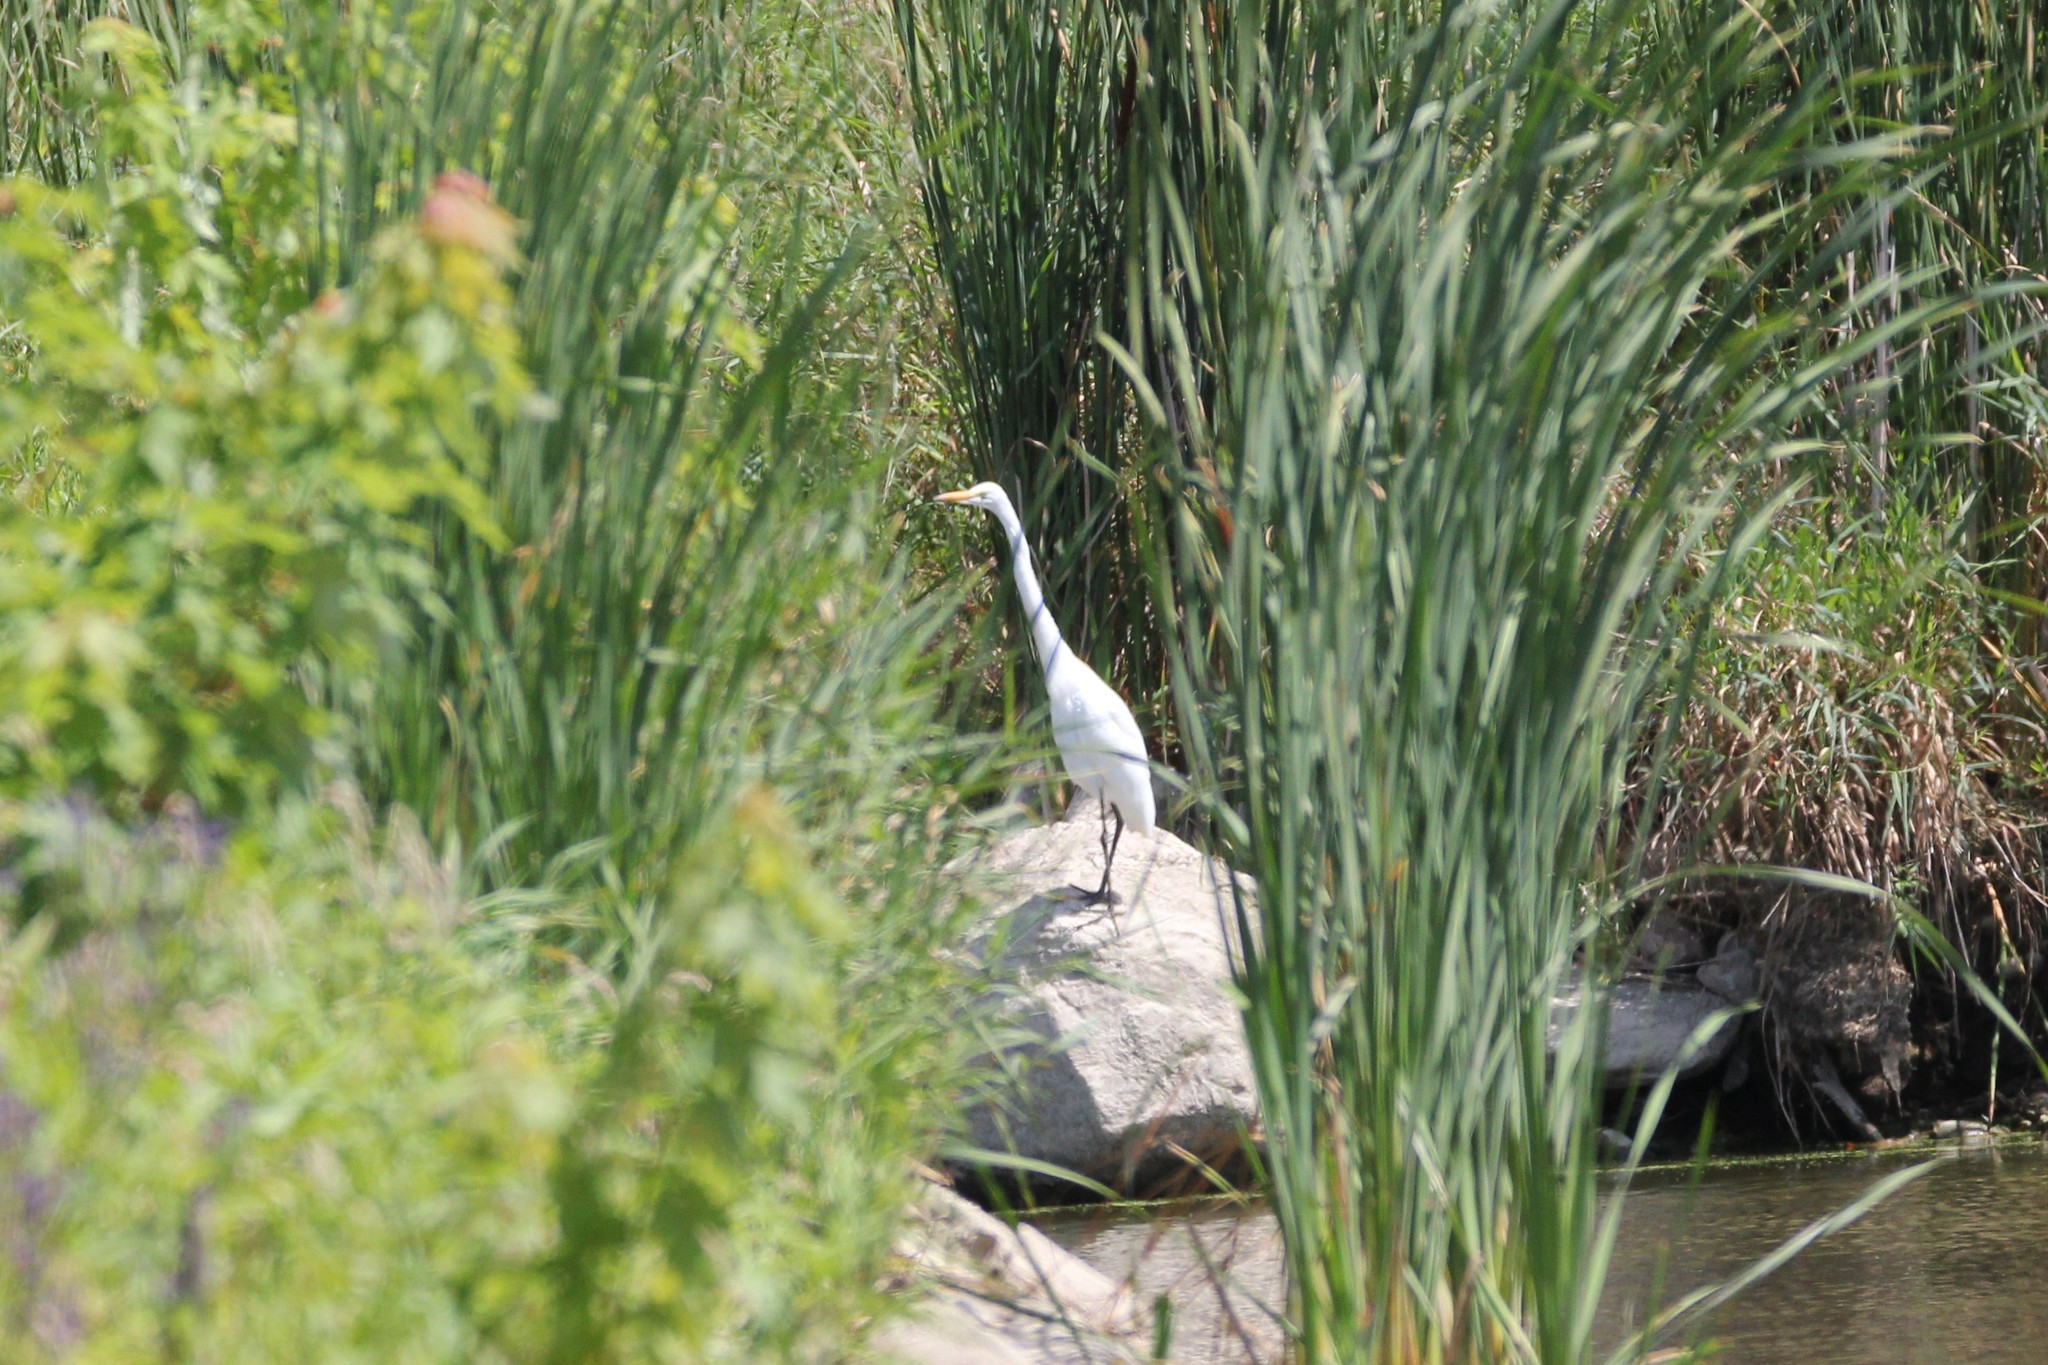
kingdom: Animalia
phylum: Chordata
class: Aves
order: Pelecaniformes
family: Ardeidae
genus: Ardea
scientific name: Ardea alba
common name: Great egret
